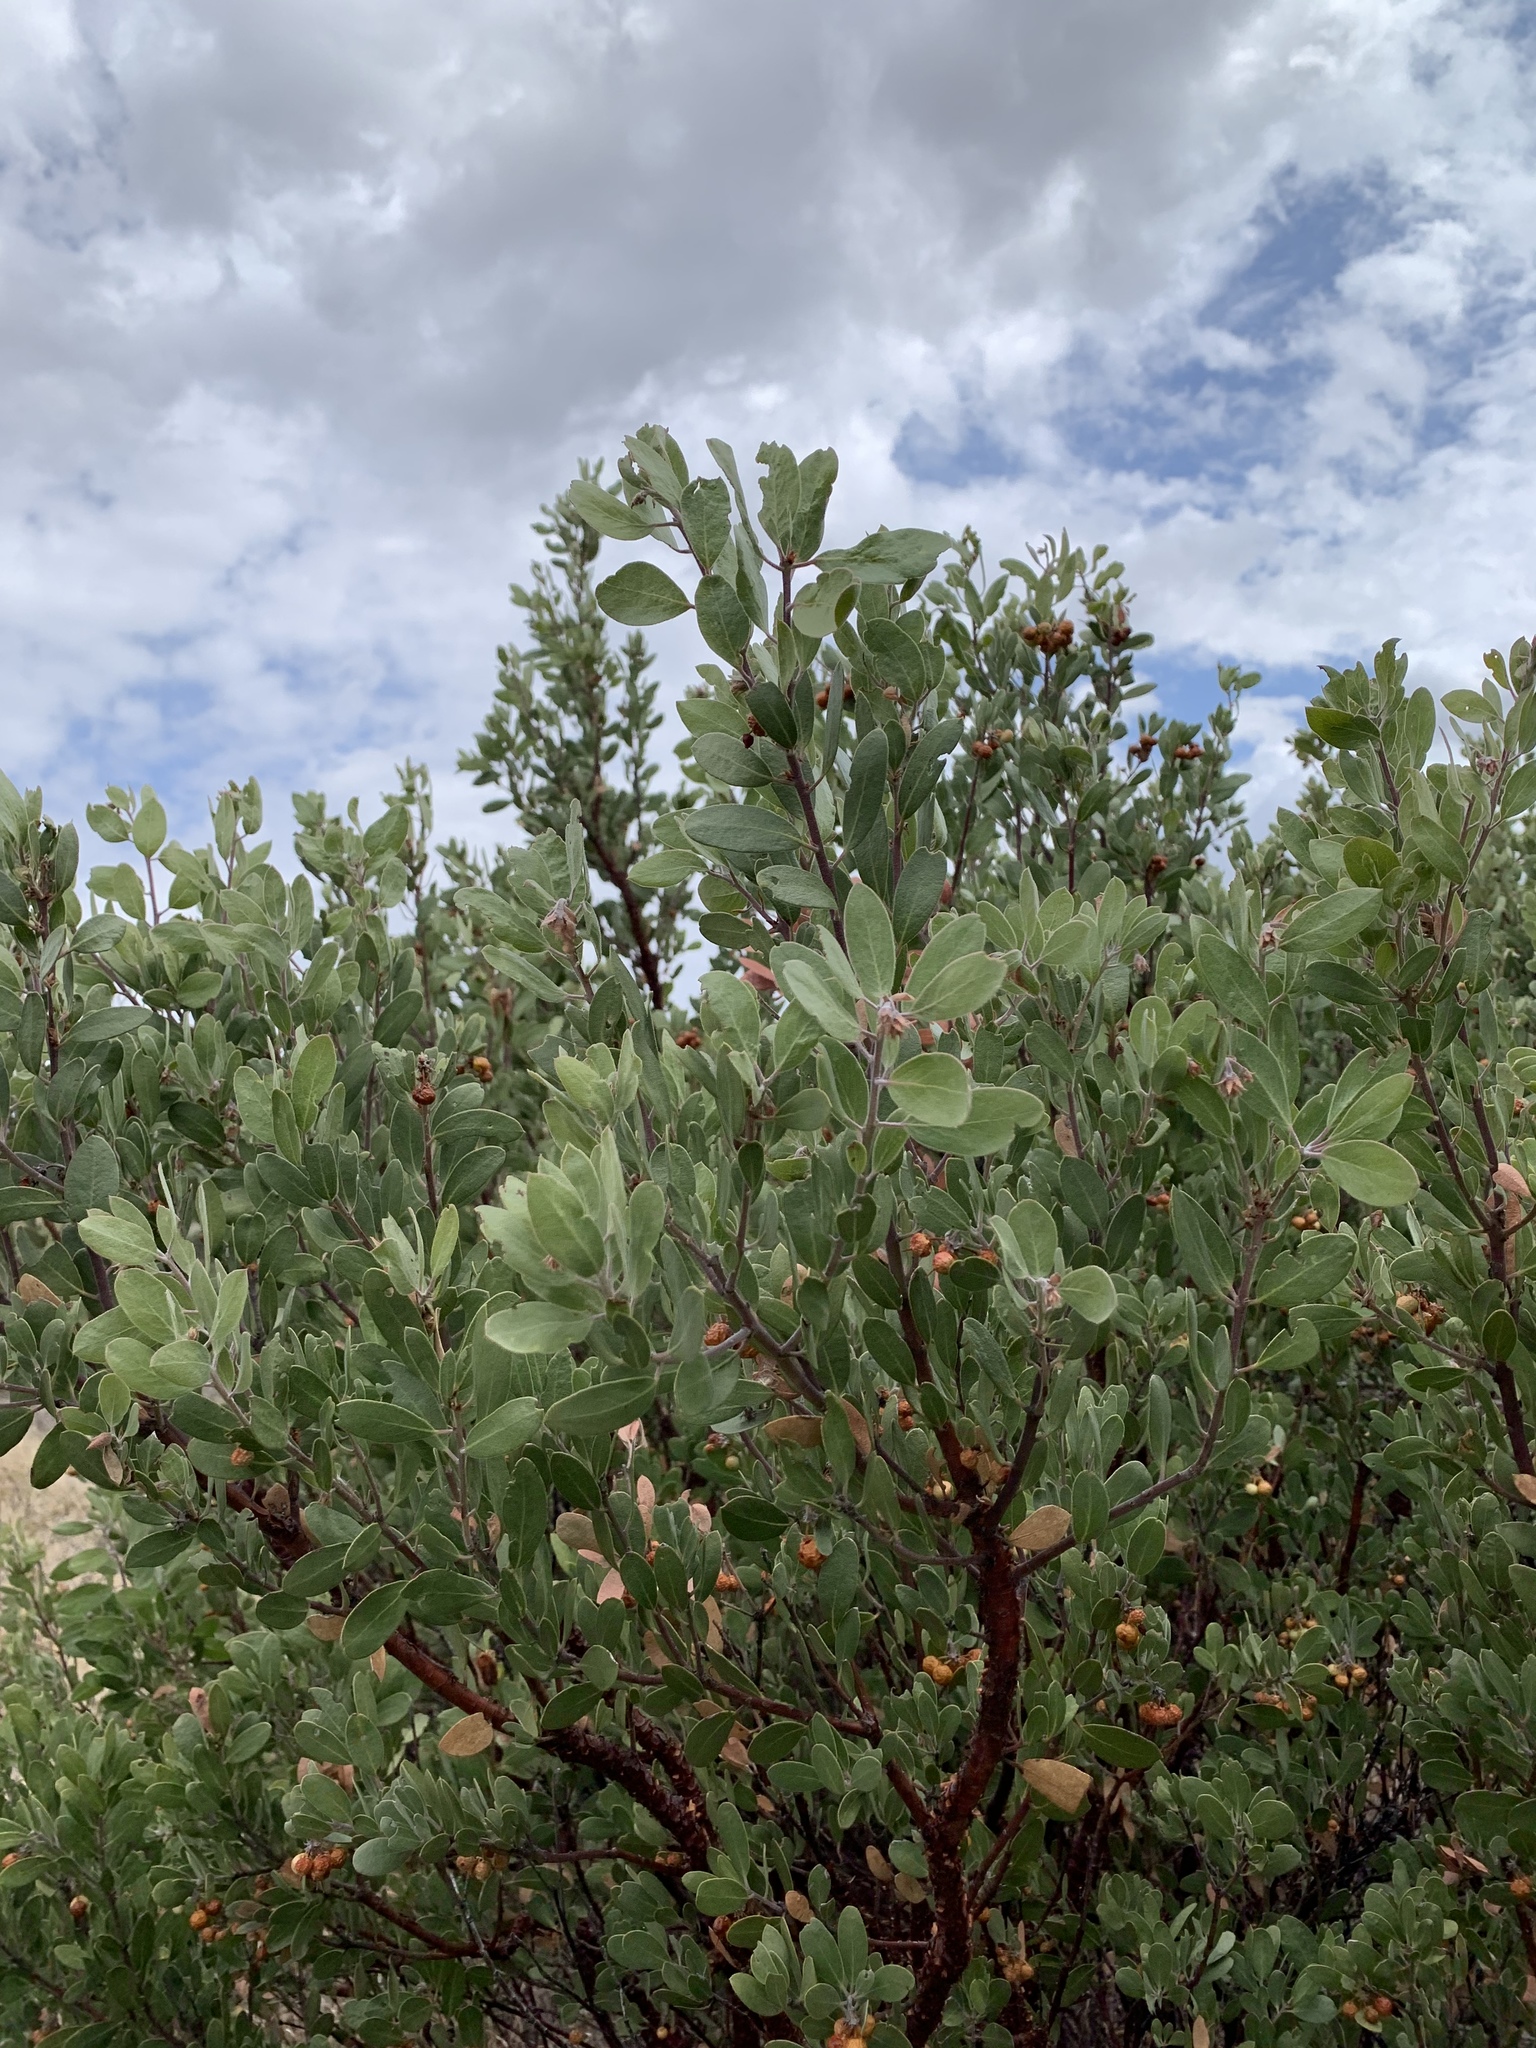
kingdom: Plantae
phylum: Tracheophyta
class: Magnoliopsida
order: Ericales
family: Ericaceae
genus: Arctostaphylos
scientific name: Arctostaphylos pungens
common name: Mexican manzanita
